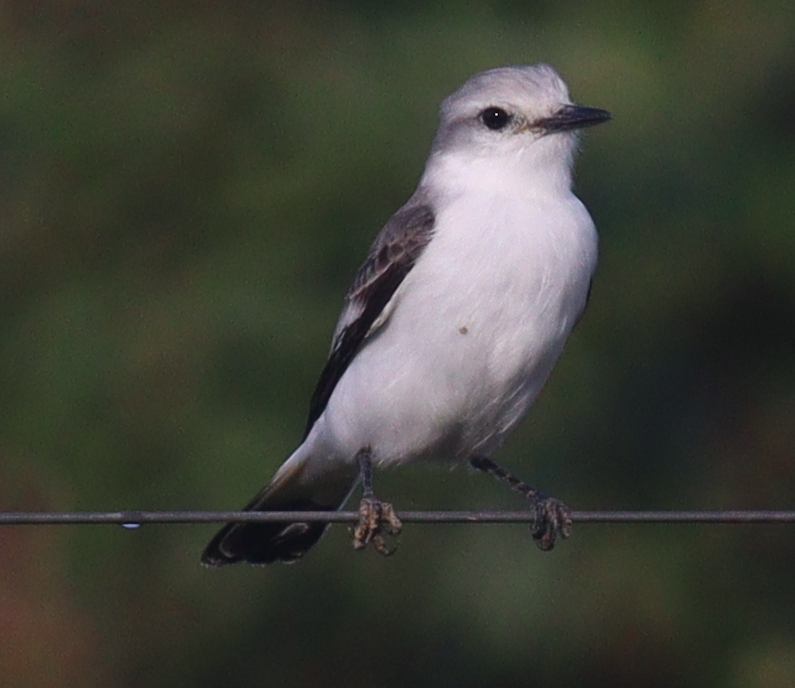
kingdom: Animalia
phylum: Chordata
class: Aves
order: Passeriformes
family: Tyrannidae
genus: Xolmis
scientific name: Xolmis velatus
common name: White-rumped monjita
